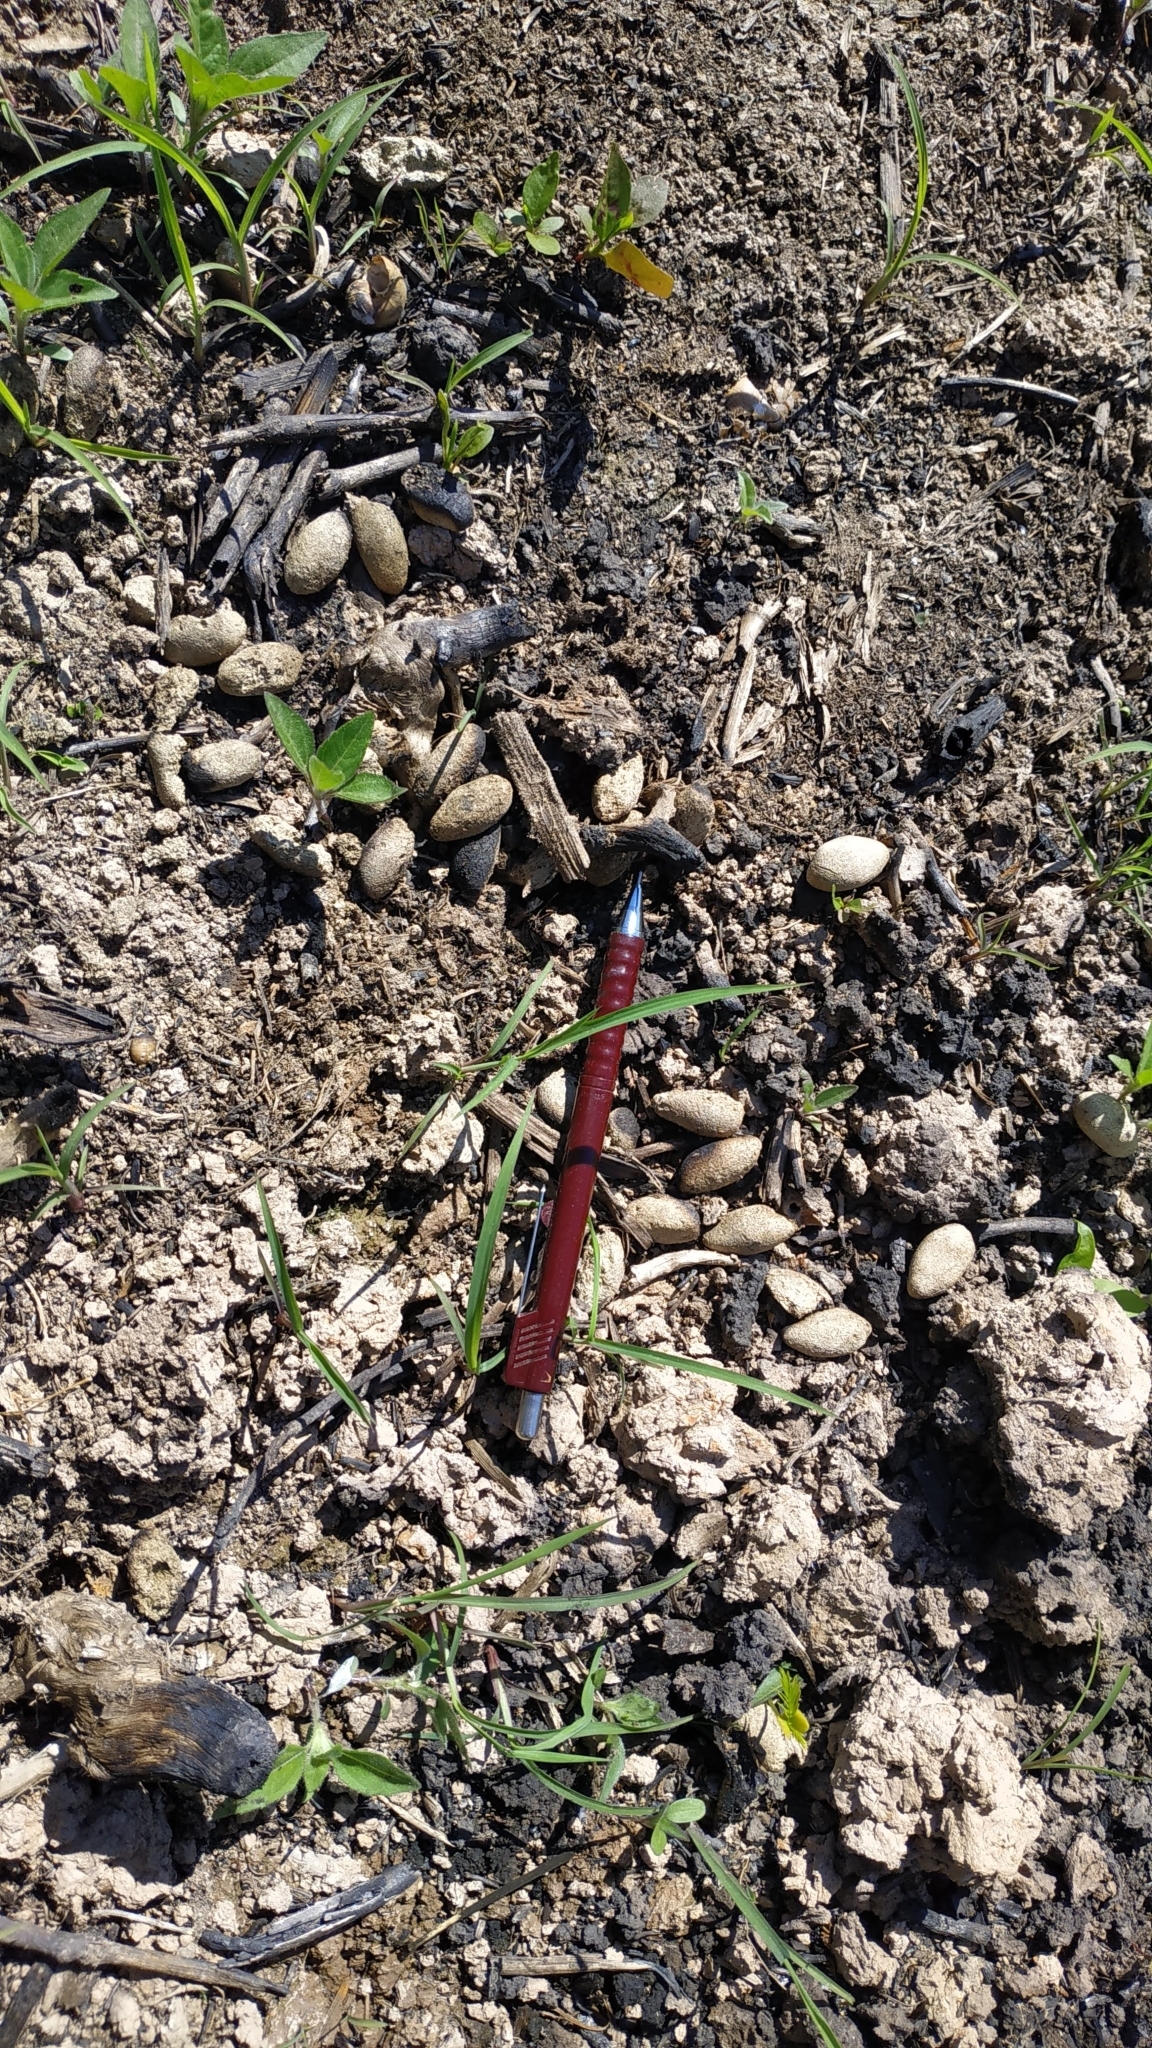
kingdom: Animalia
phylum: Chordata
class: Mammalia
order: Rodentia
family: Caviidae
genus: Hydrochoerus
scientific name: Hydrochoerus hydrochaeris
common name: Capybara
